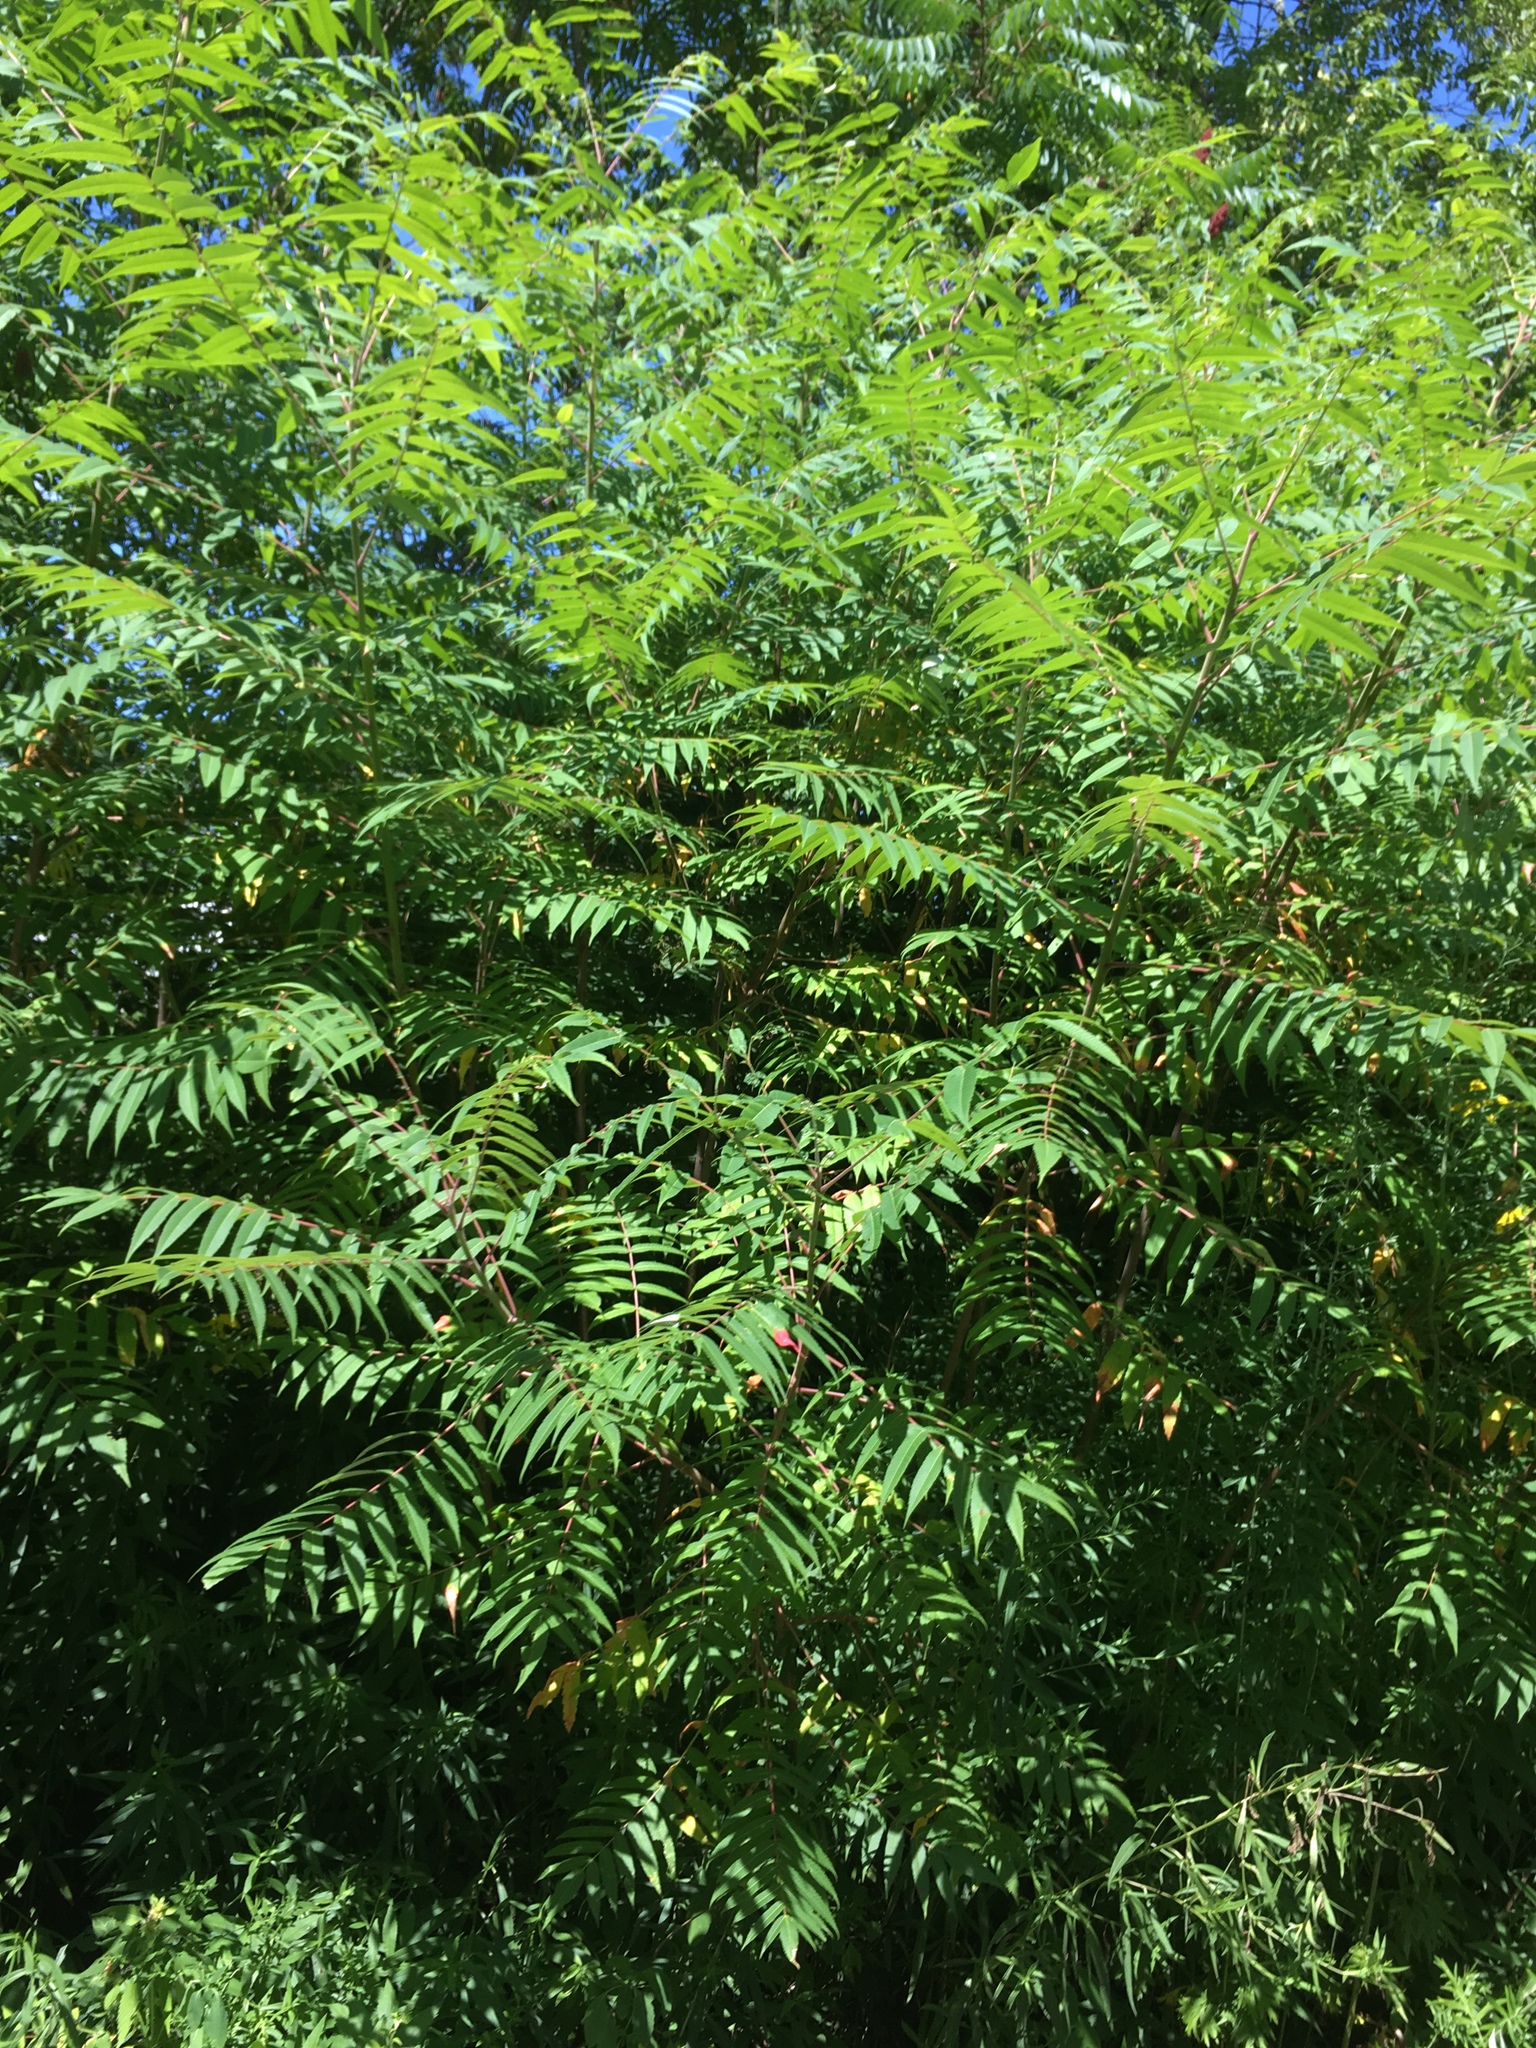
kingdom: Plantae
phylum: Tracheophyta
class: Magnoliopsida
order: Sapindales
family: Anacardiaceae
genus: Rhus
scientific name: Rhus typhina
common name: Staghorn sumac
